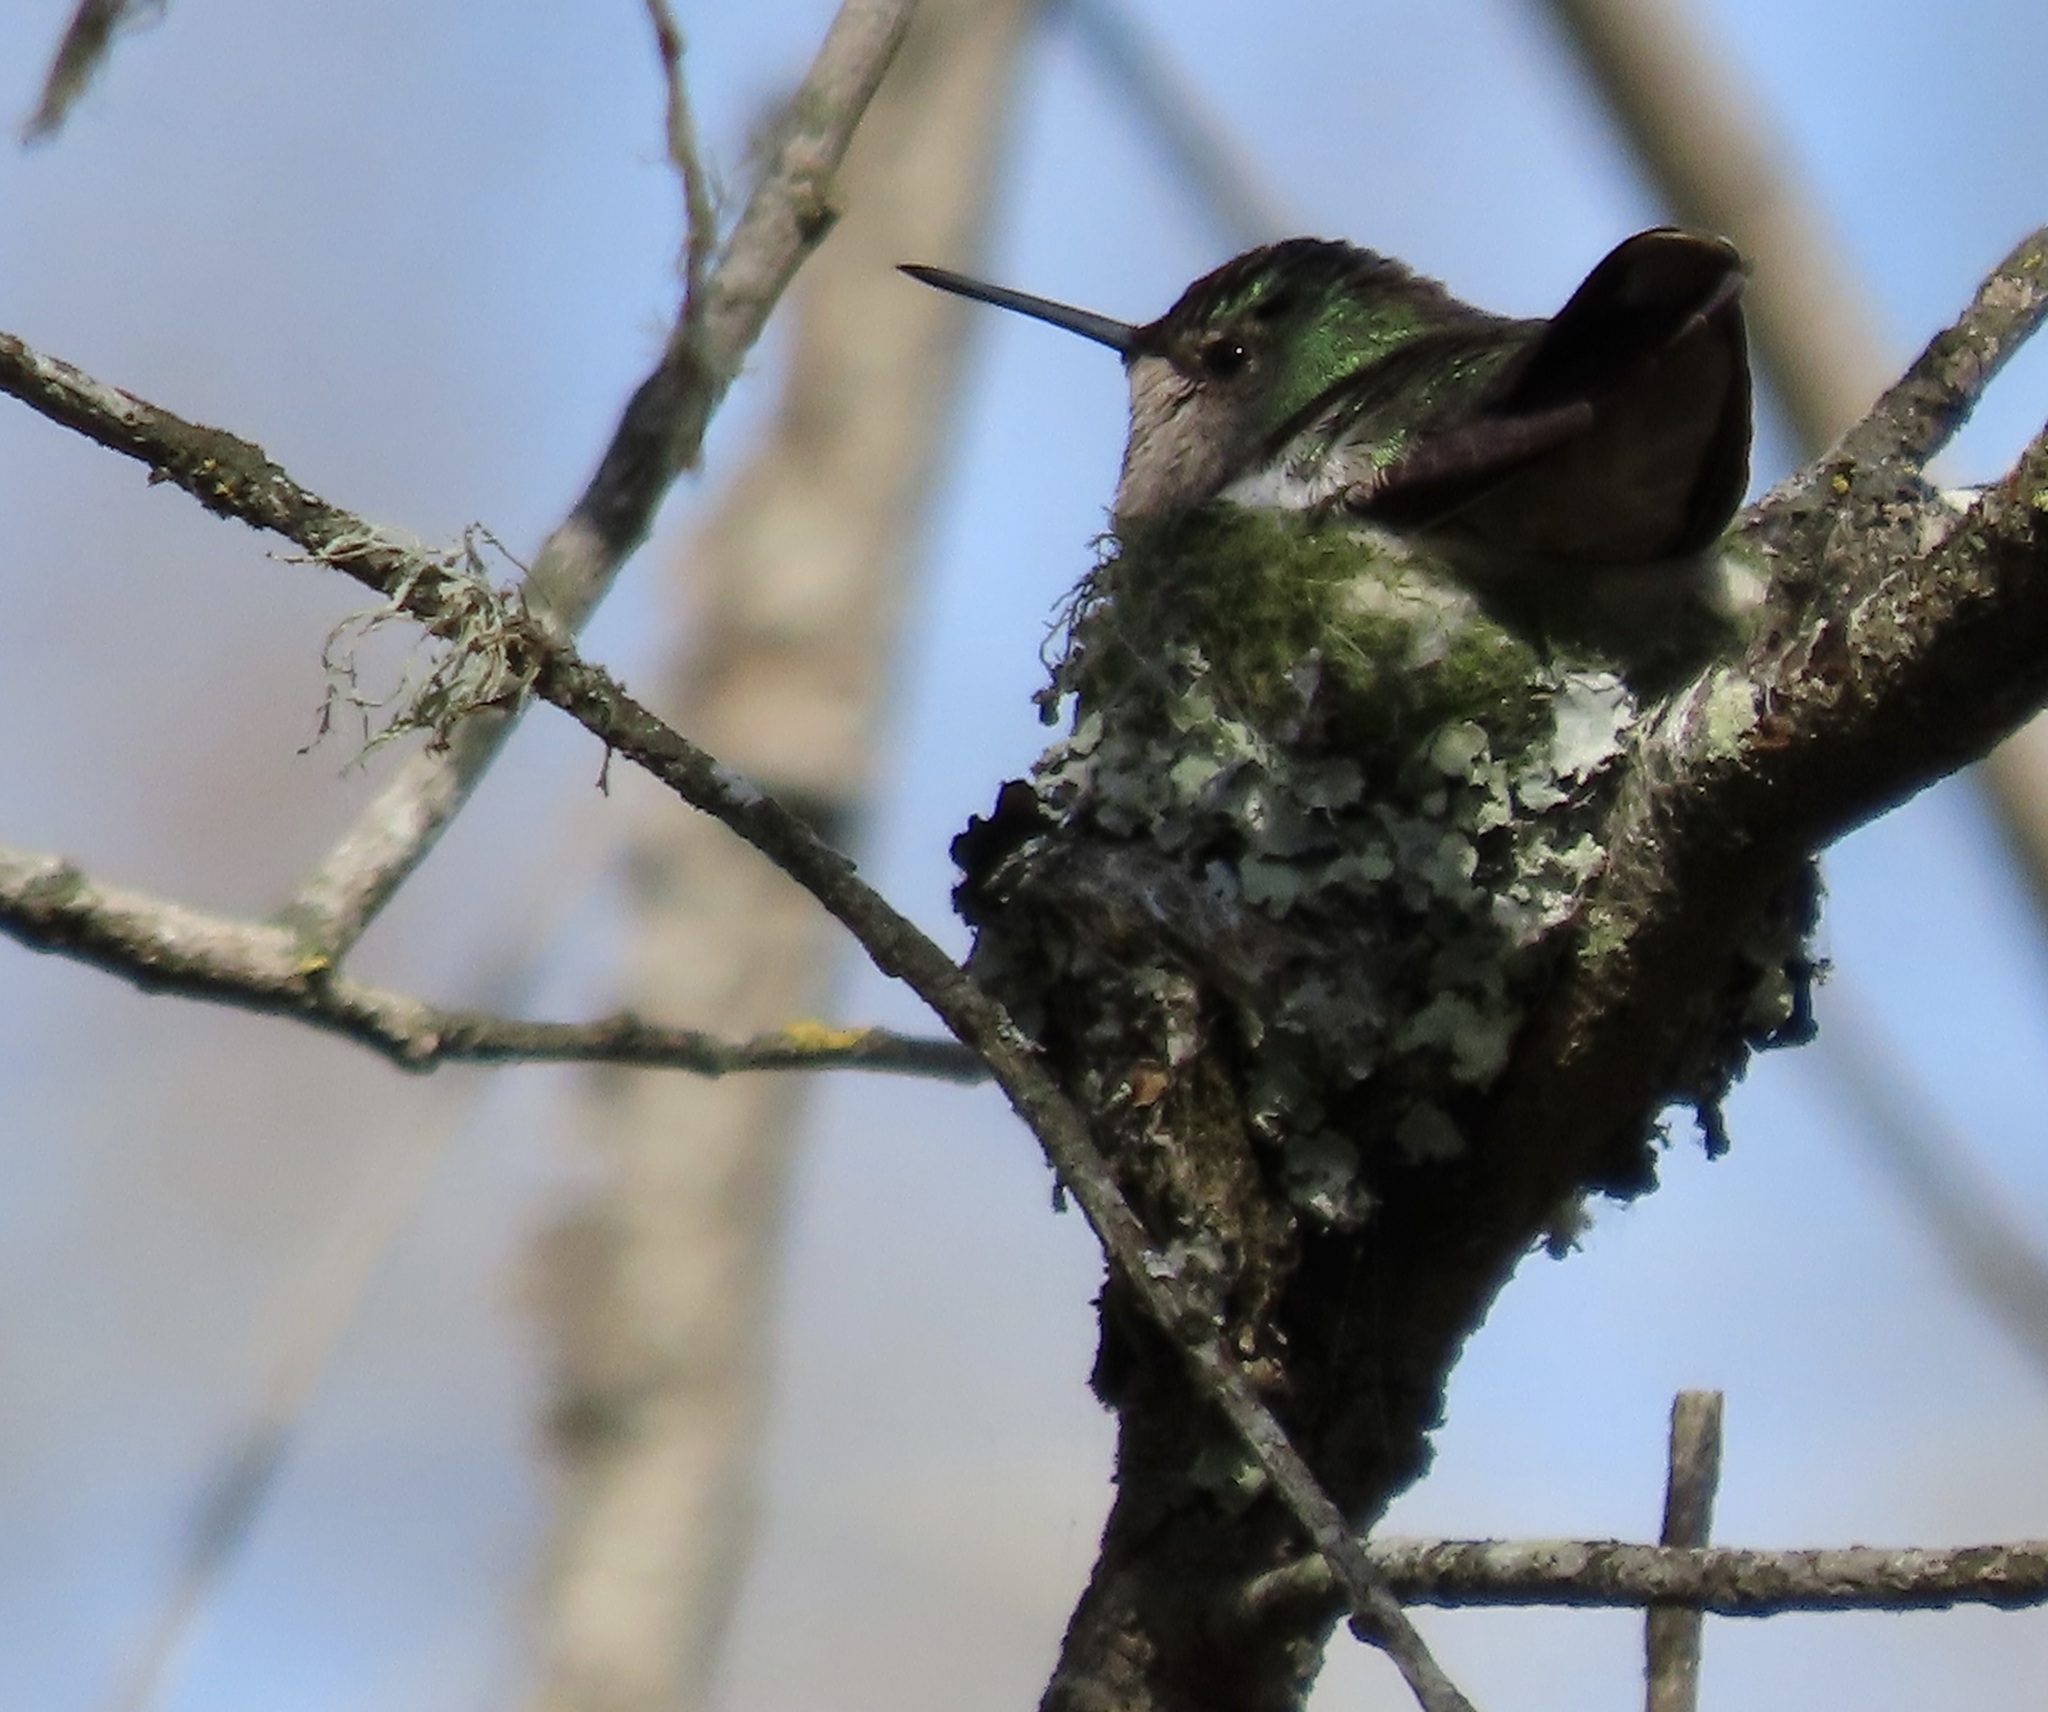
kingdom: Animalia
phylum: Chordata
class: Aves
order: Apodiformes
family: Trochilidae
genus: Calypte
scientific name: Calypte anna
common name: Anna's hummingbird
